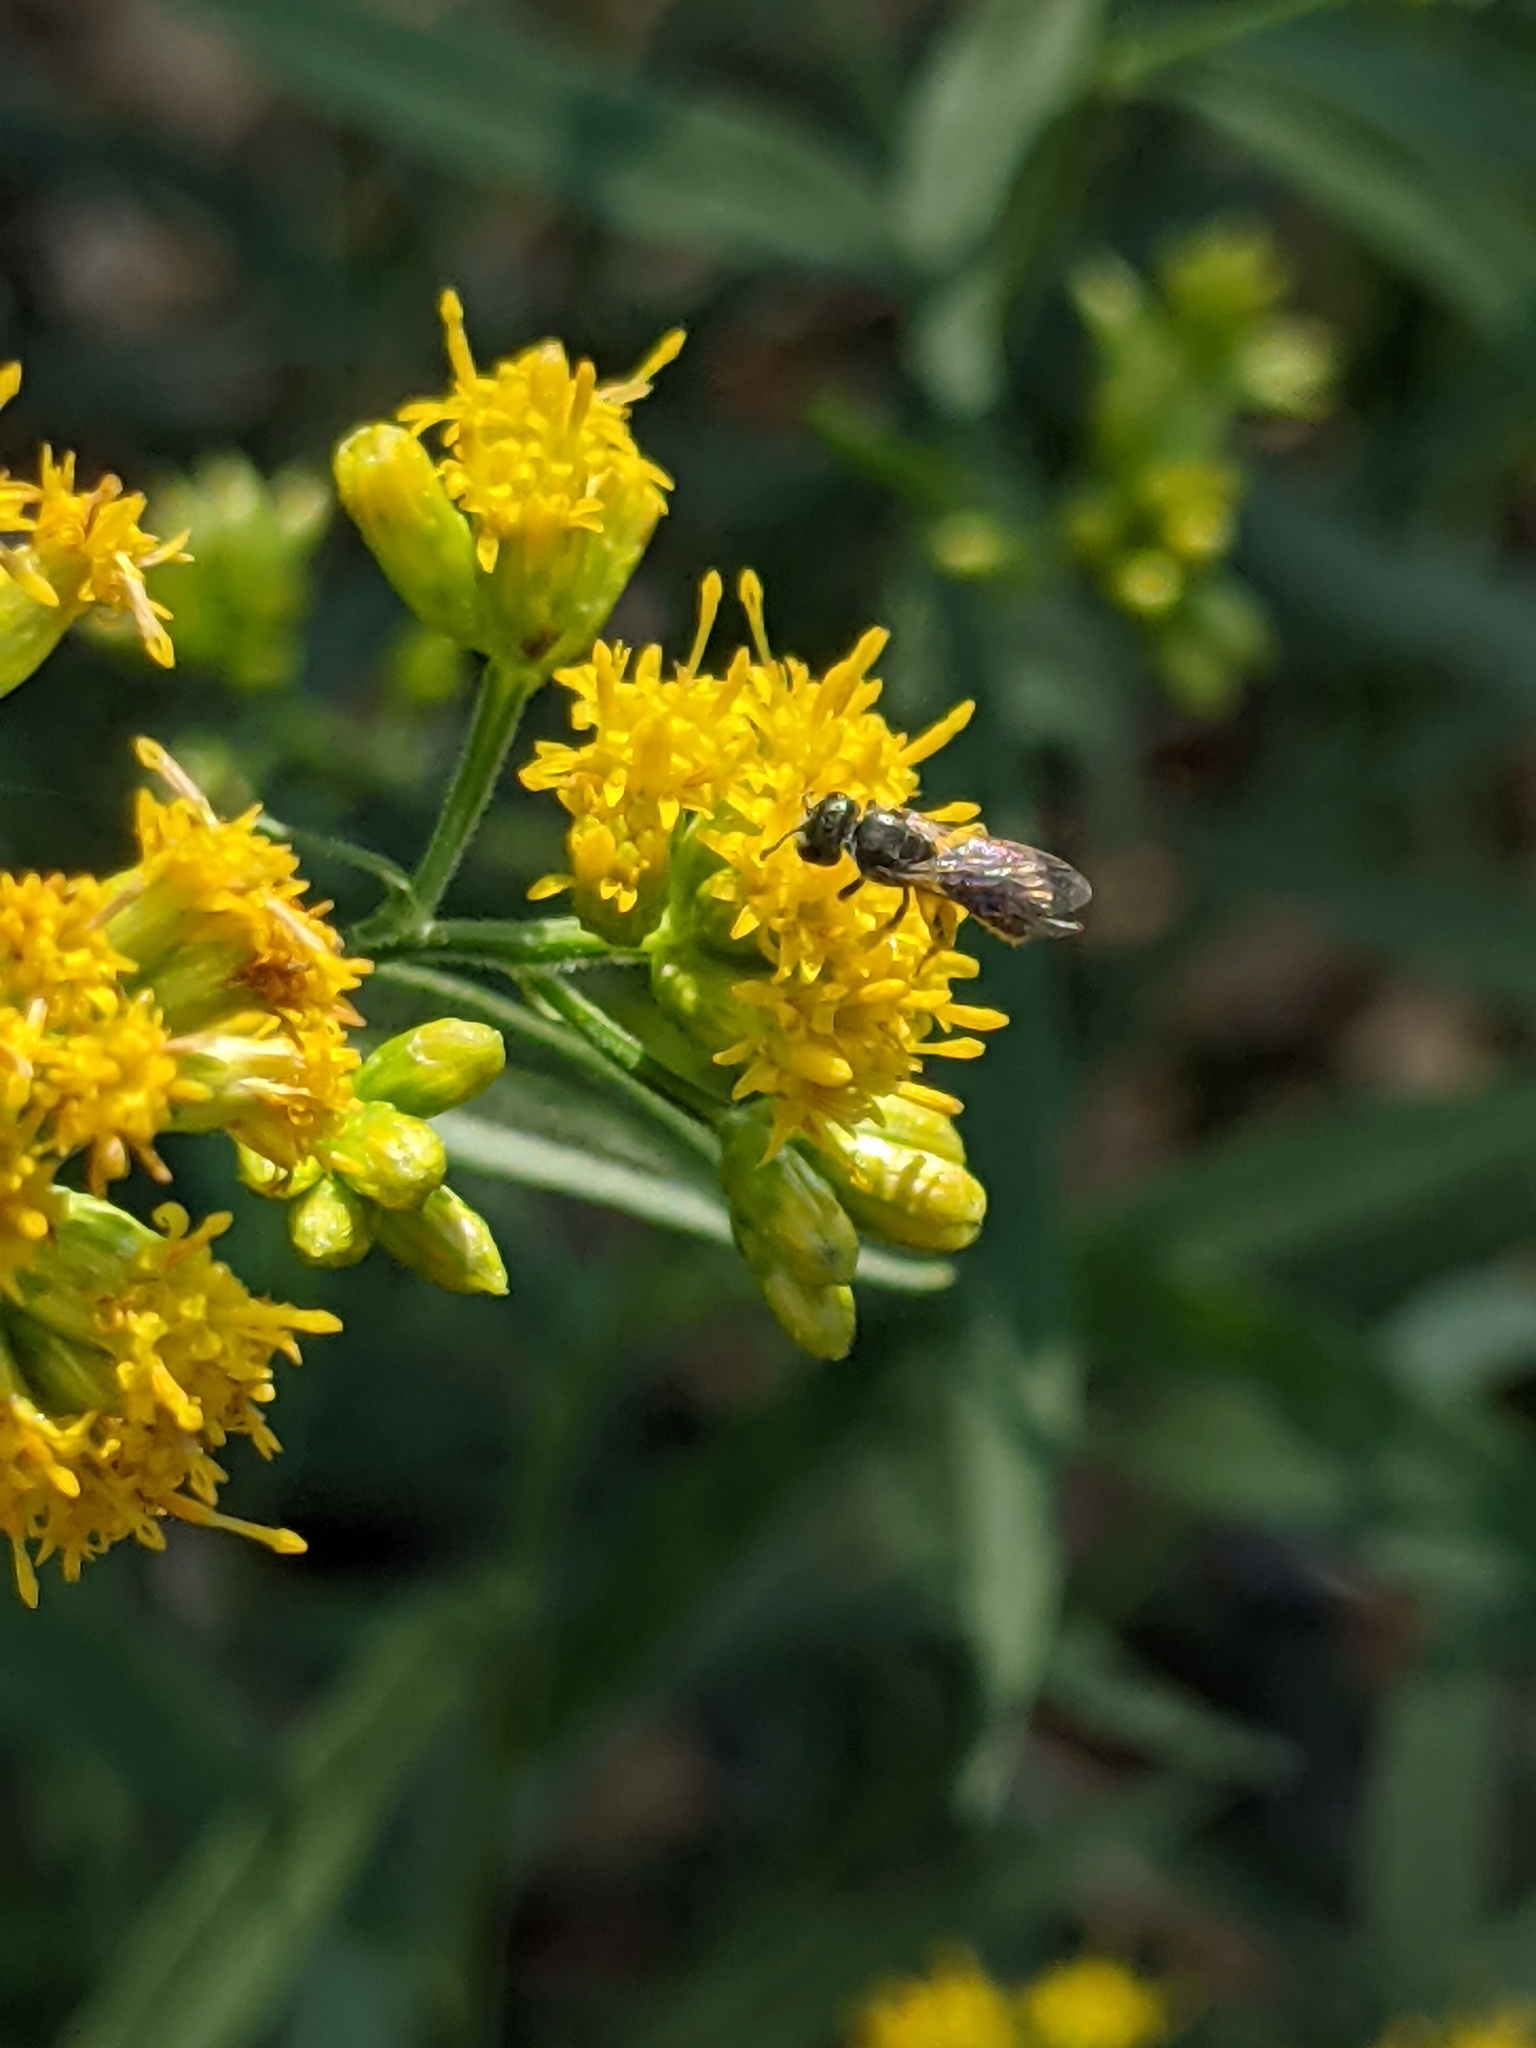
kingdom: Animalia
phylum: Arthropoda
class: Insecta
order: Hymenoptera
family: Halictidae
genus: Dialictus
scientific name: Dialictus
